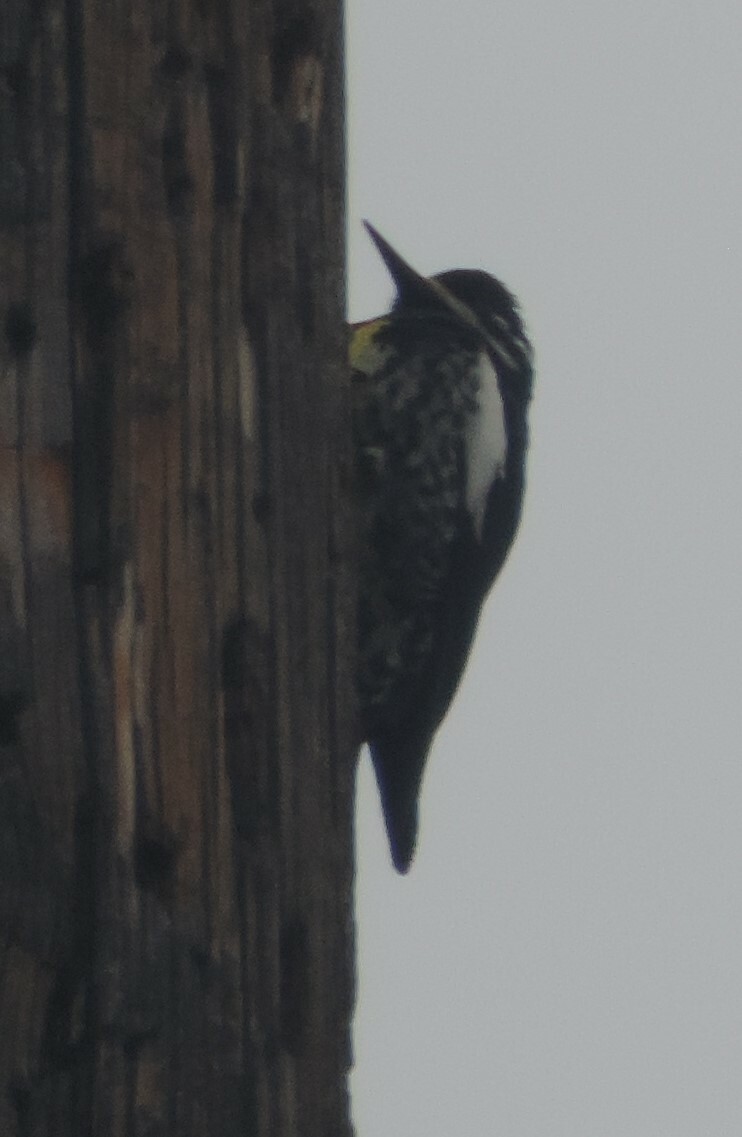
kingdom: Animalia
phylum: Chordata
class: Aves
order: Piciformes
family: Picidae
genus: Sphyrapicus
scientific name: Sphyrapicus thyroideus
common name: Williamson's sapsucker
